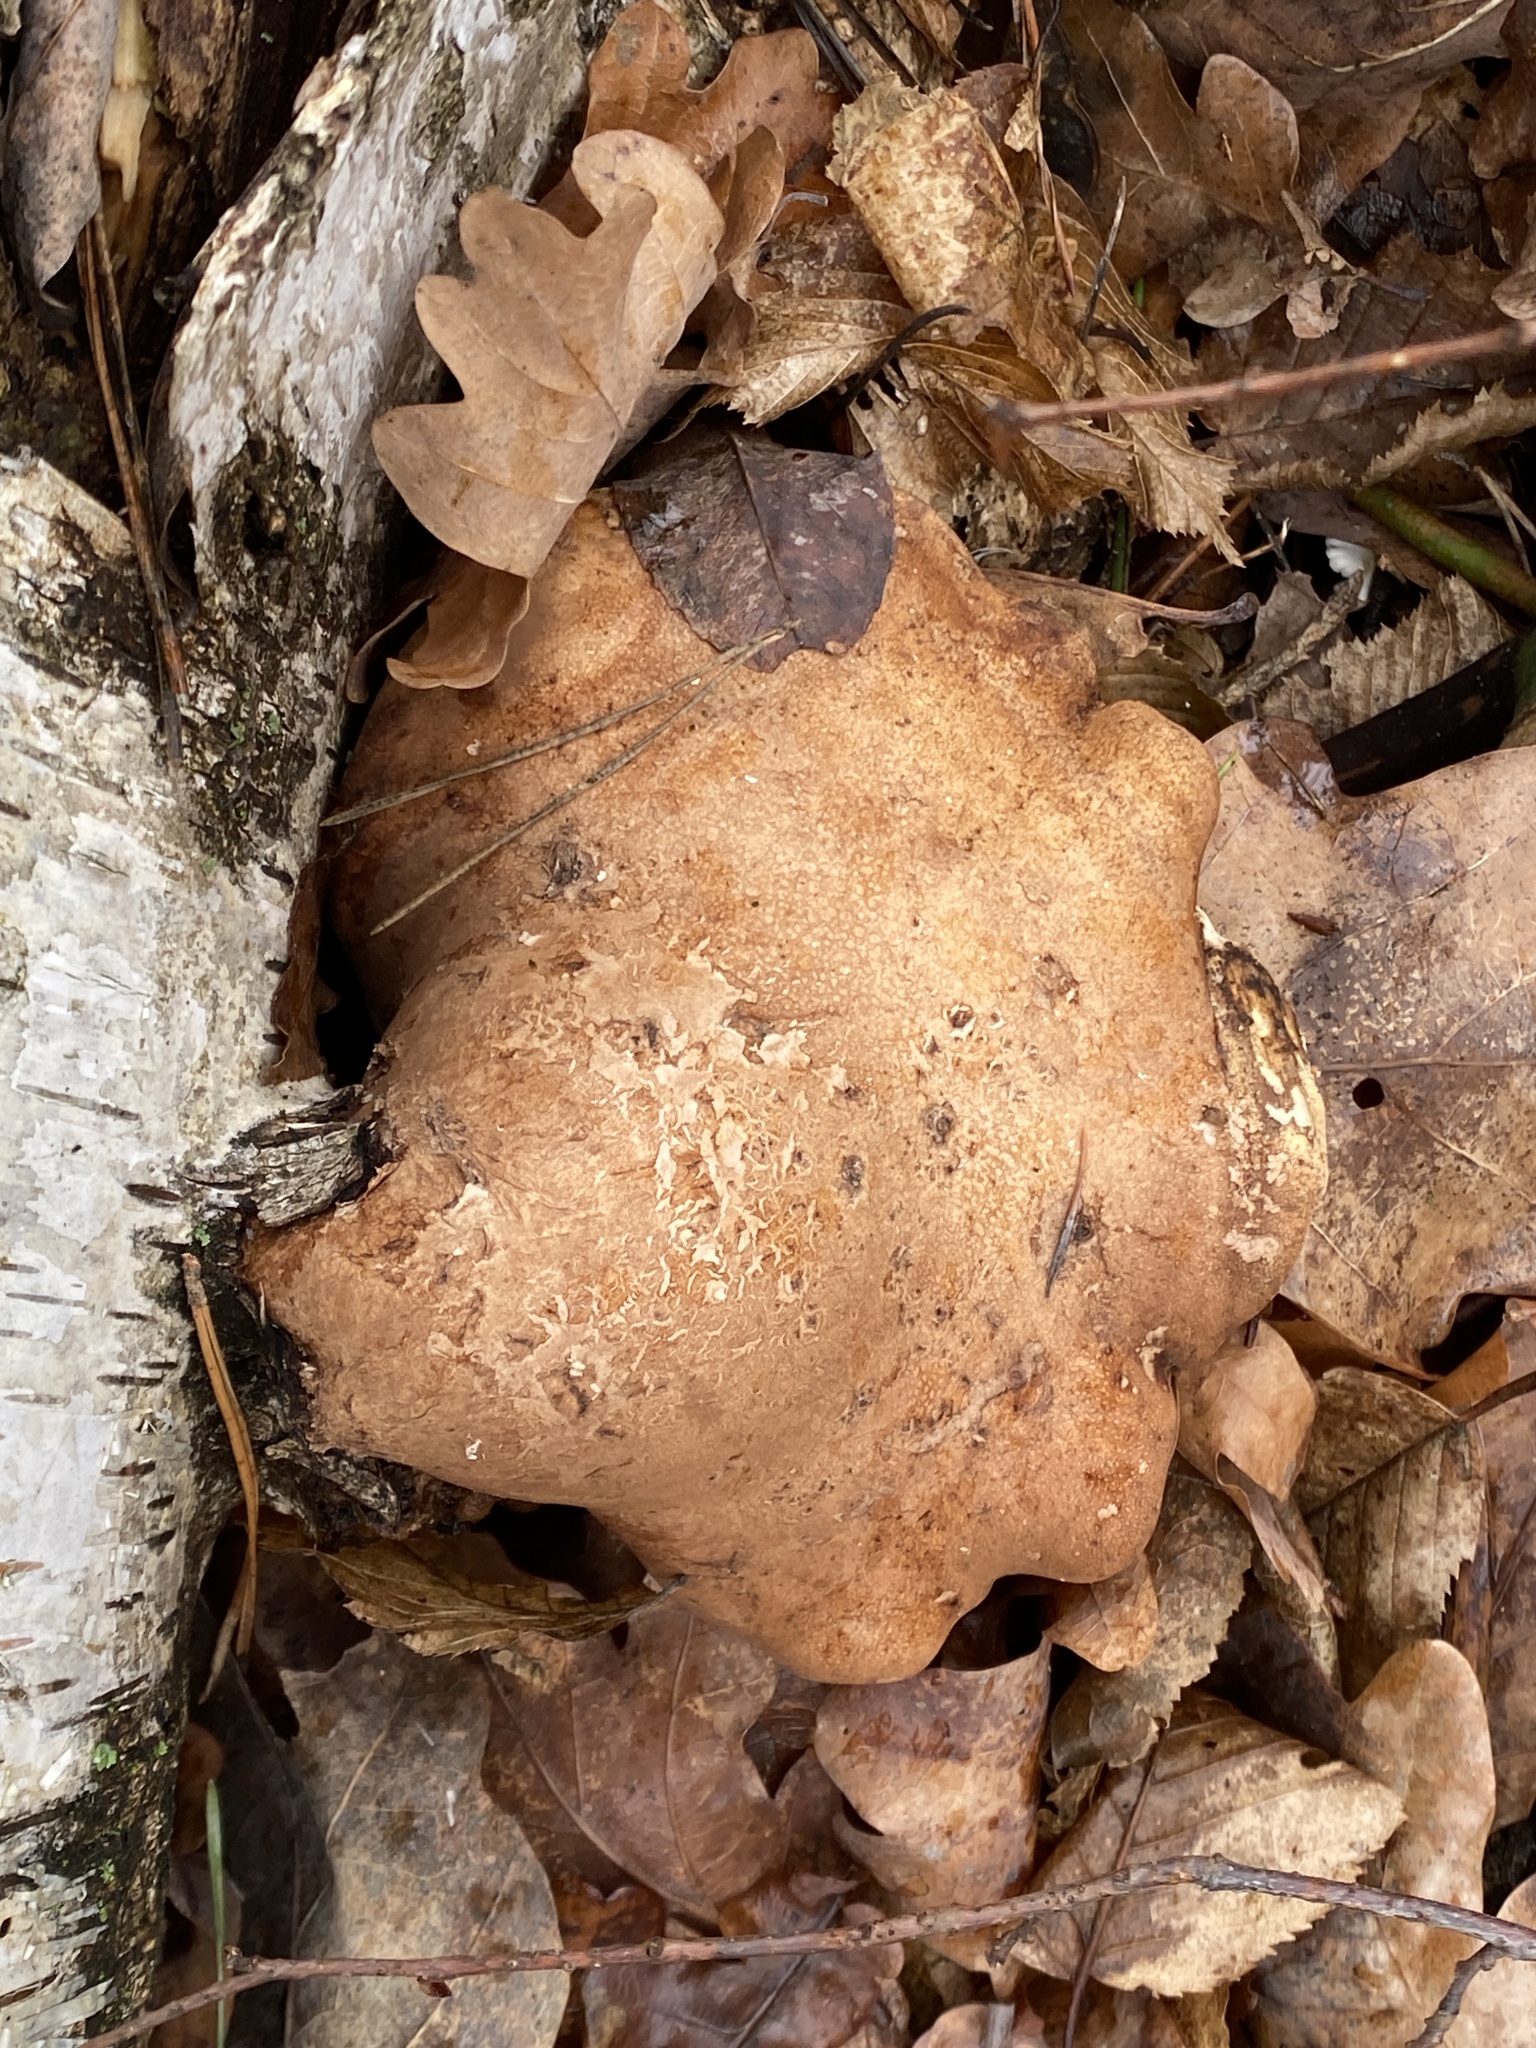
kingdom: Fungi
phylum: Basidiomycota
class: Agaricomycetes
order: Polyporales
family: Fomitopsidaceae
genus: Fomitopsis
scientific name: Fomitopsis betulina
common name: Birch polypore
